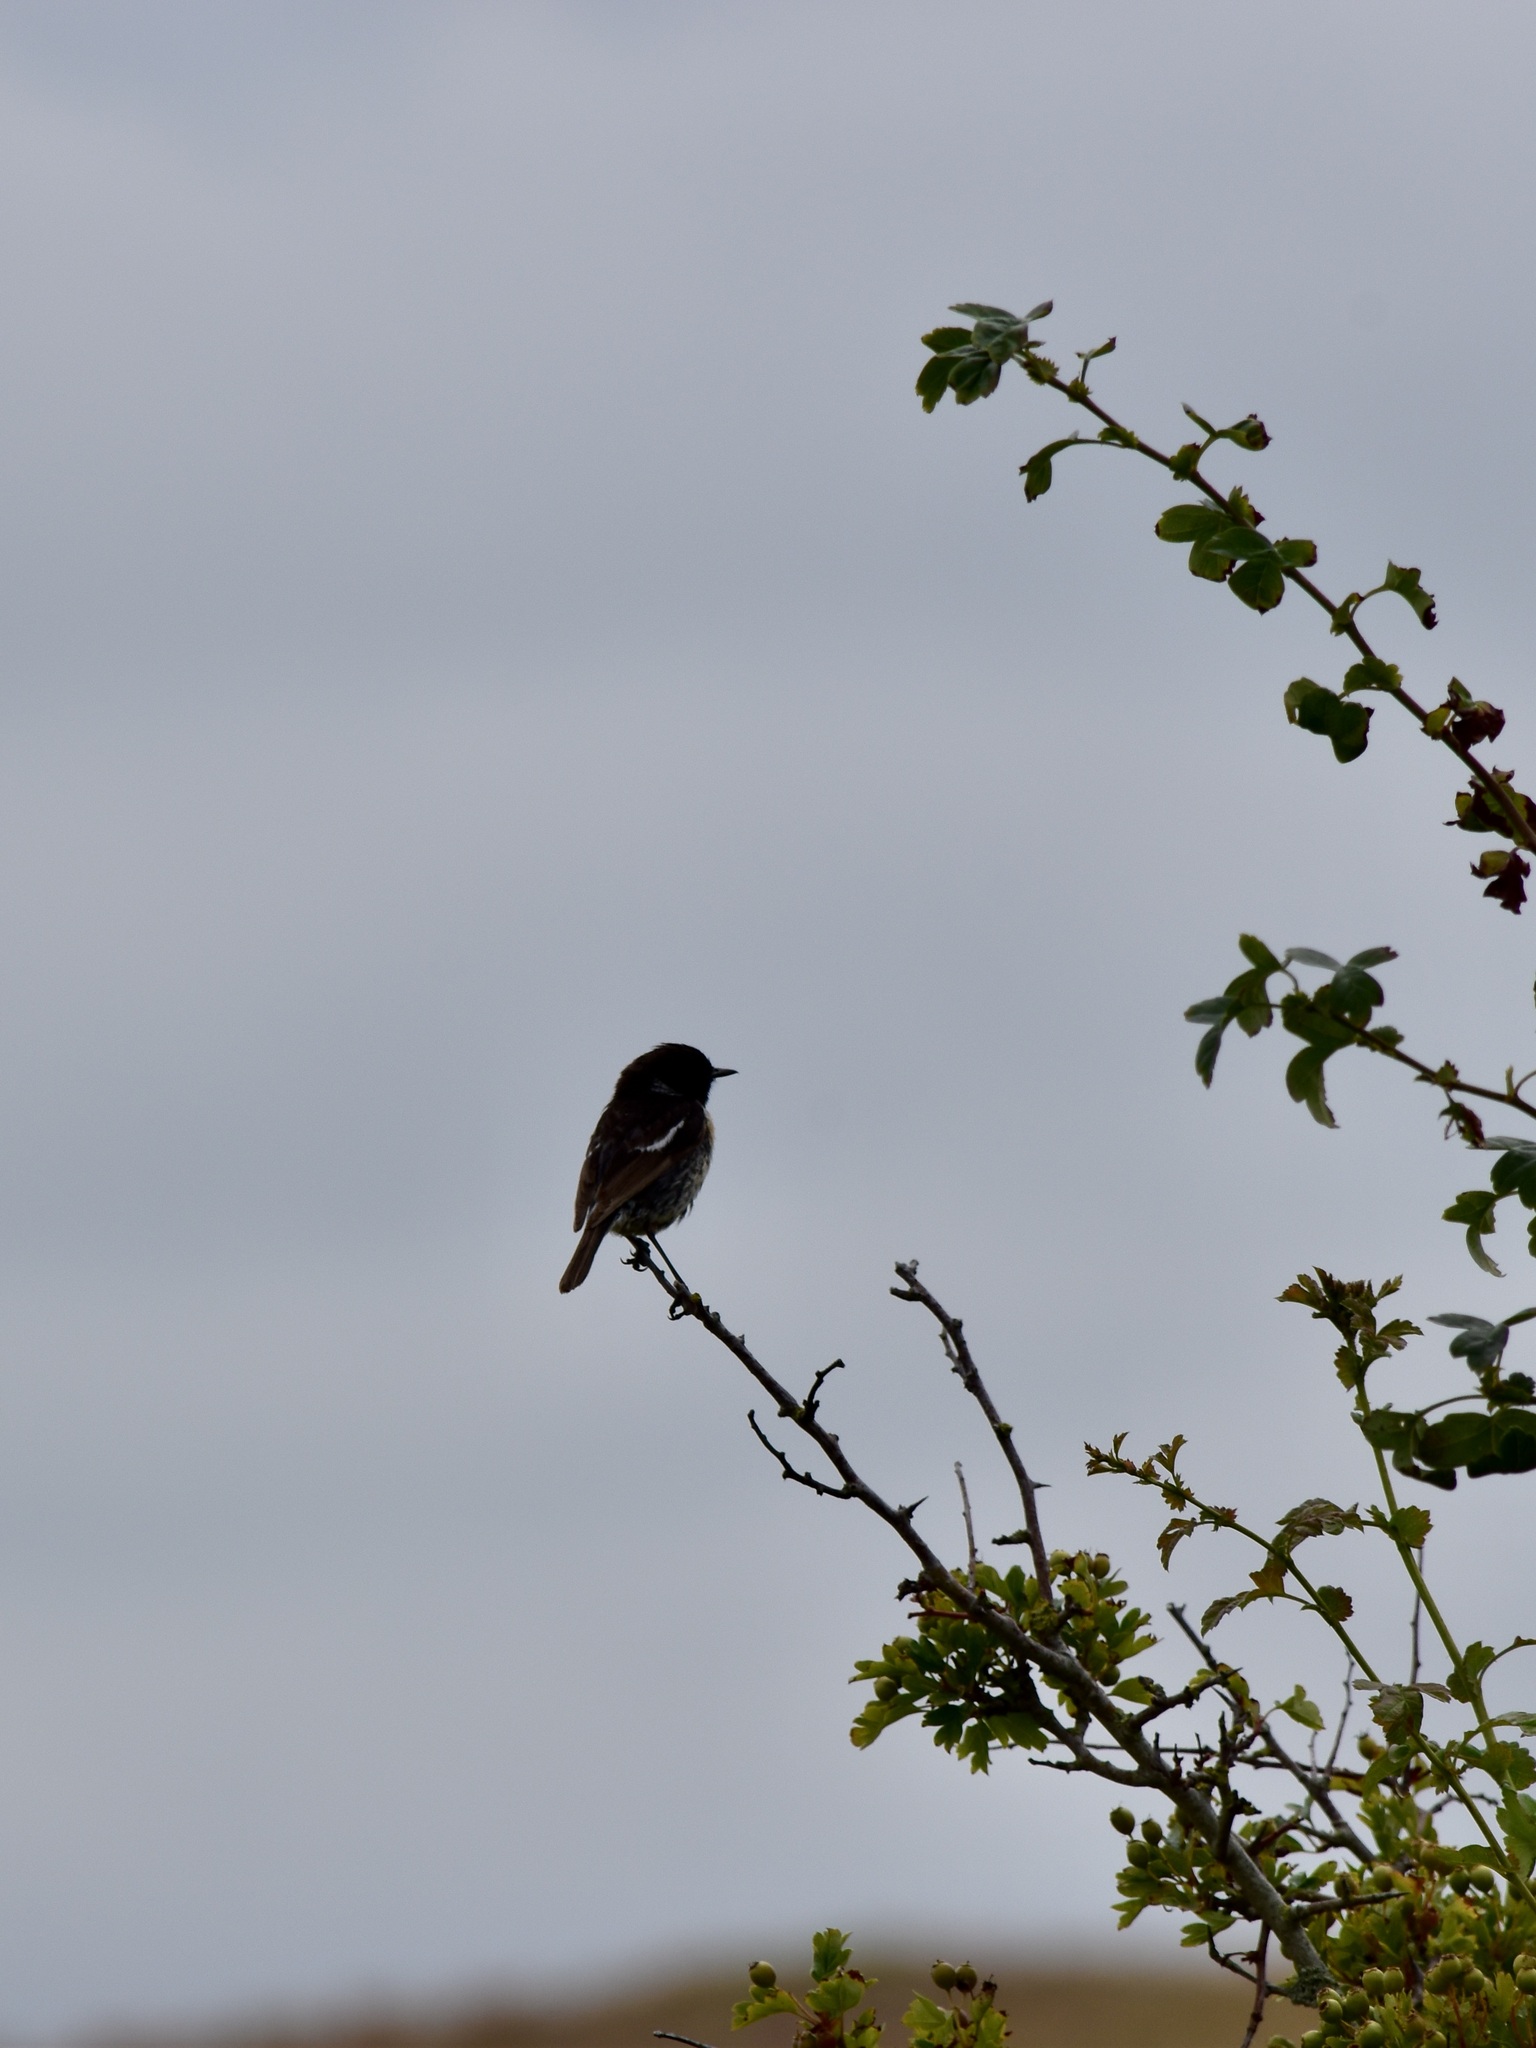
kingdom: Animalia
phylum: Chordata
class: Aves
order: Passeriformes
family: Muscicapidae
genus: Saxicola
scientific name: Saxicola rubicola
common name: European stonechat
